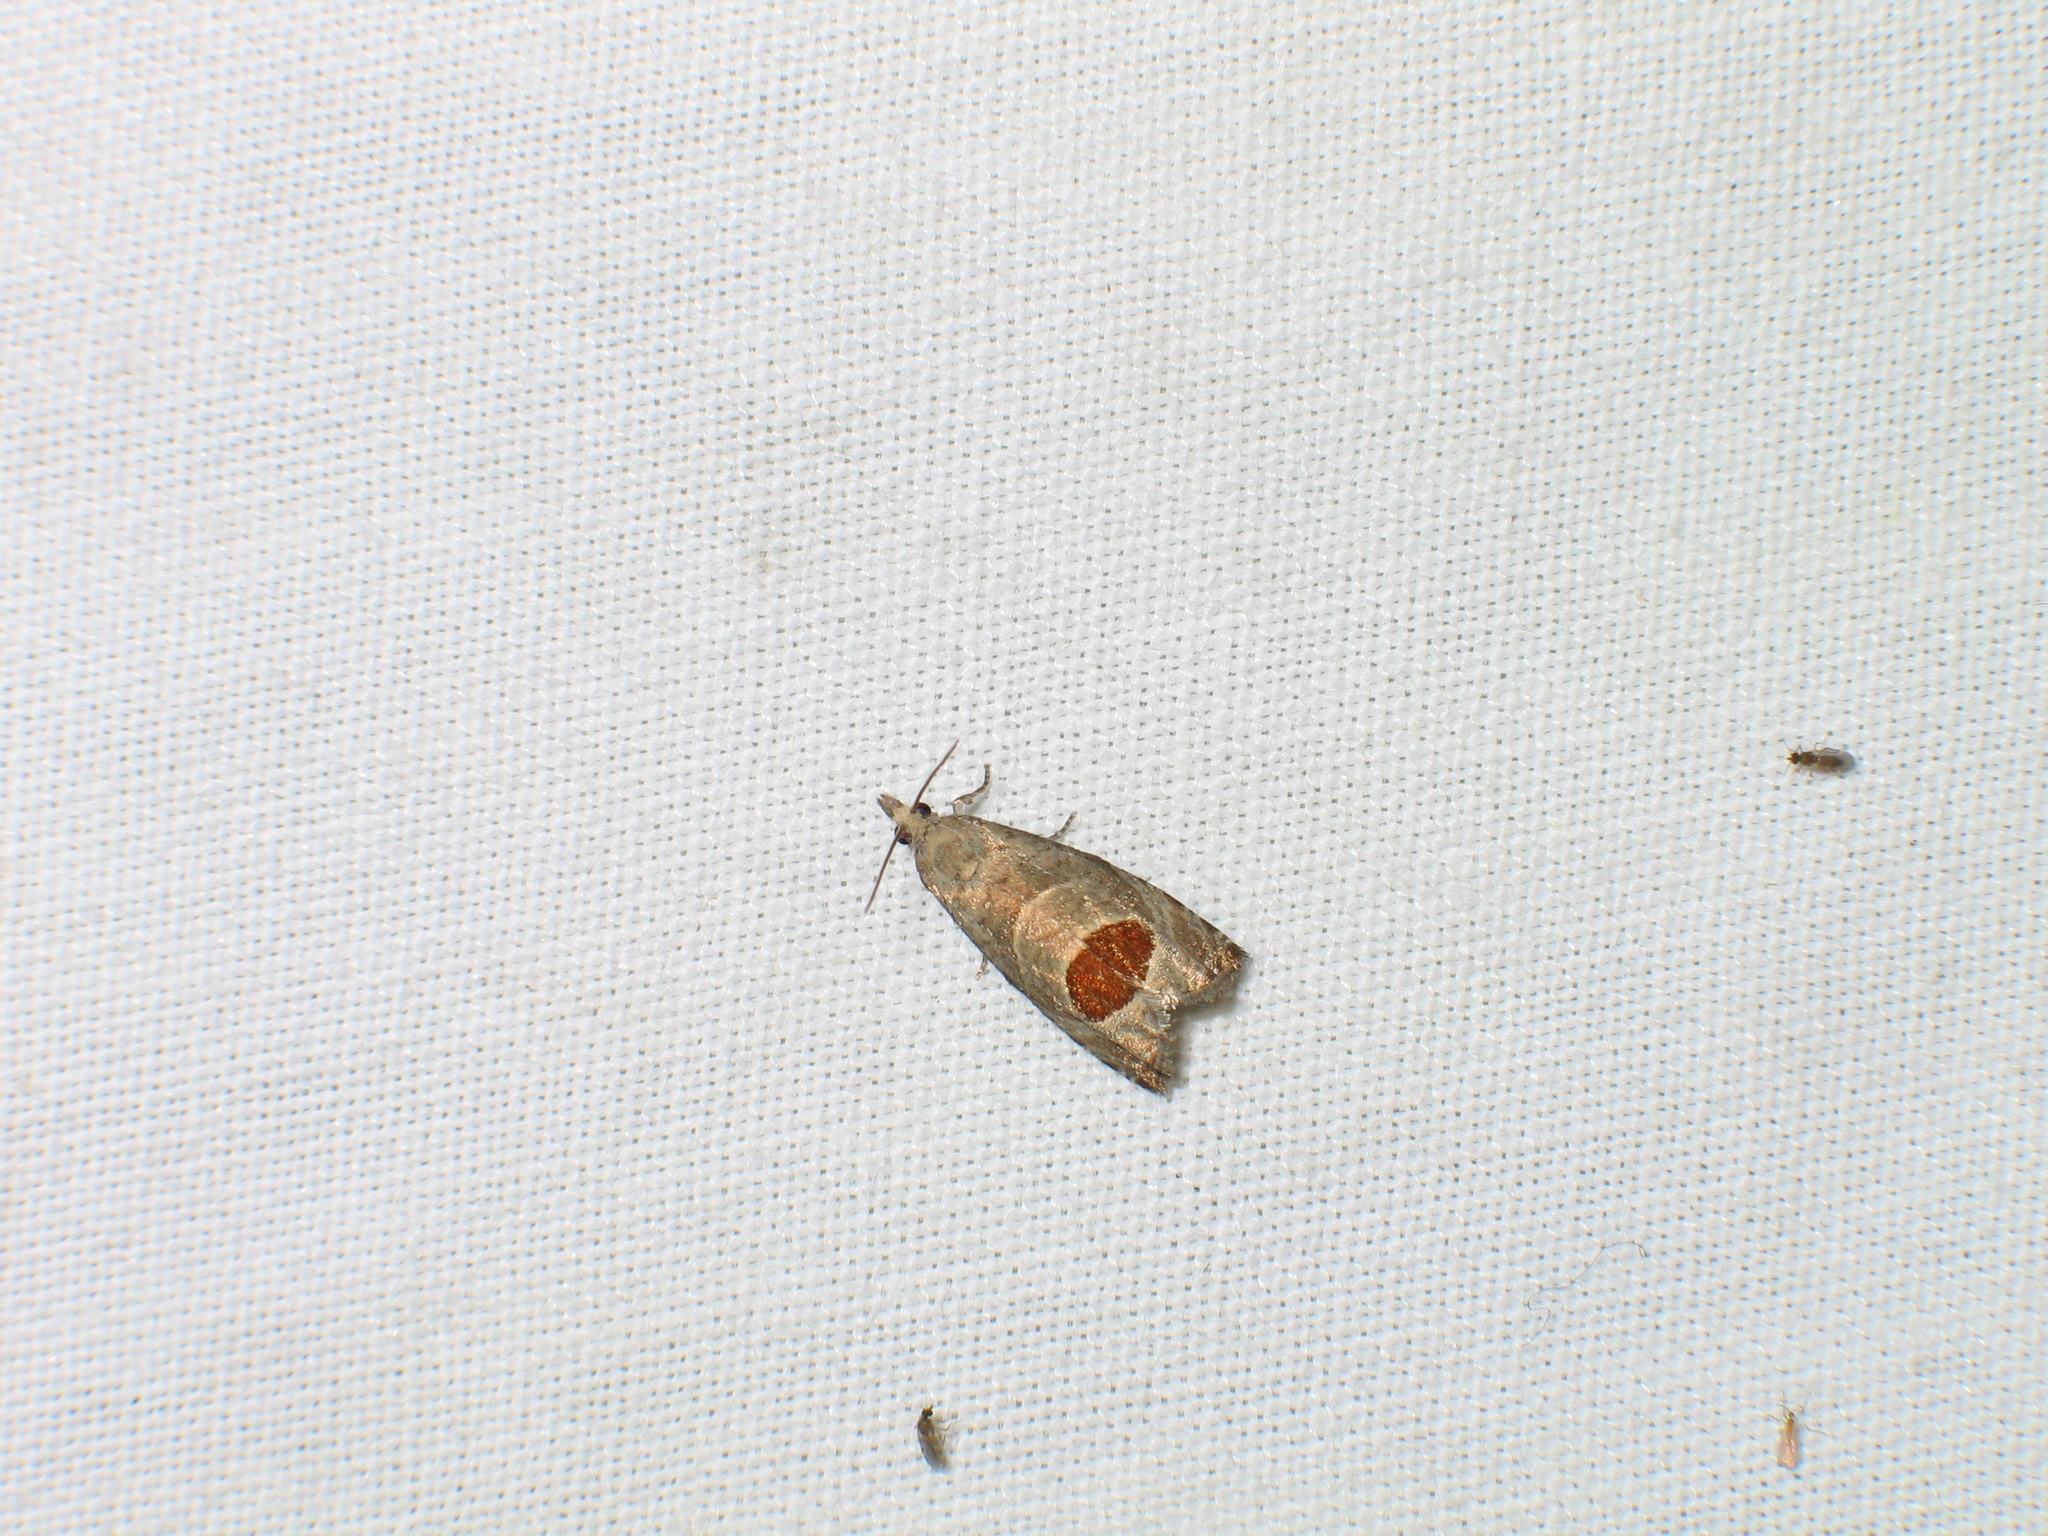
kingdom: Animalia
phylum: Arthropoda
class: Insecta
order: Lepidoptera
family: Tortricidae
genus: Notocelia
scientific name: Notocelia uddmanniana
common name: Bramble shoot moth
